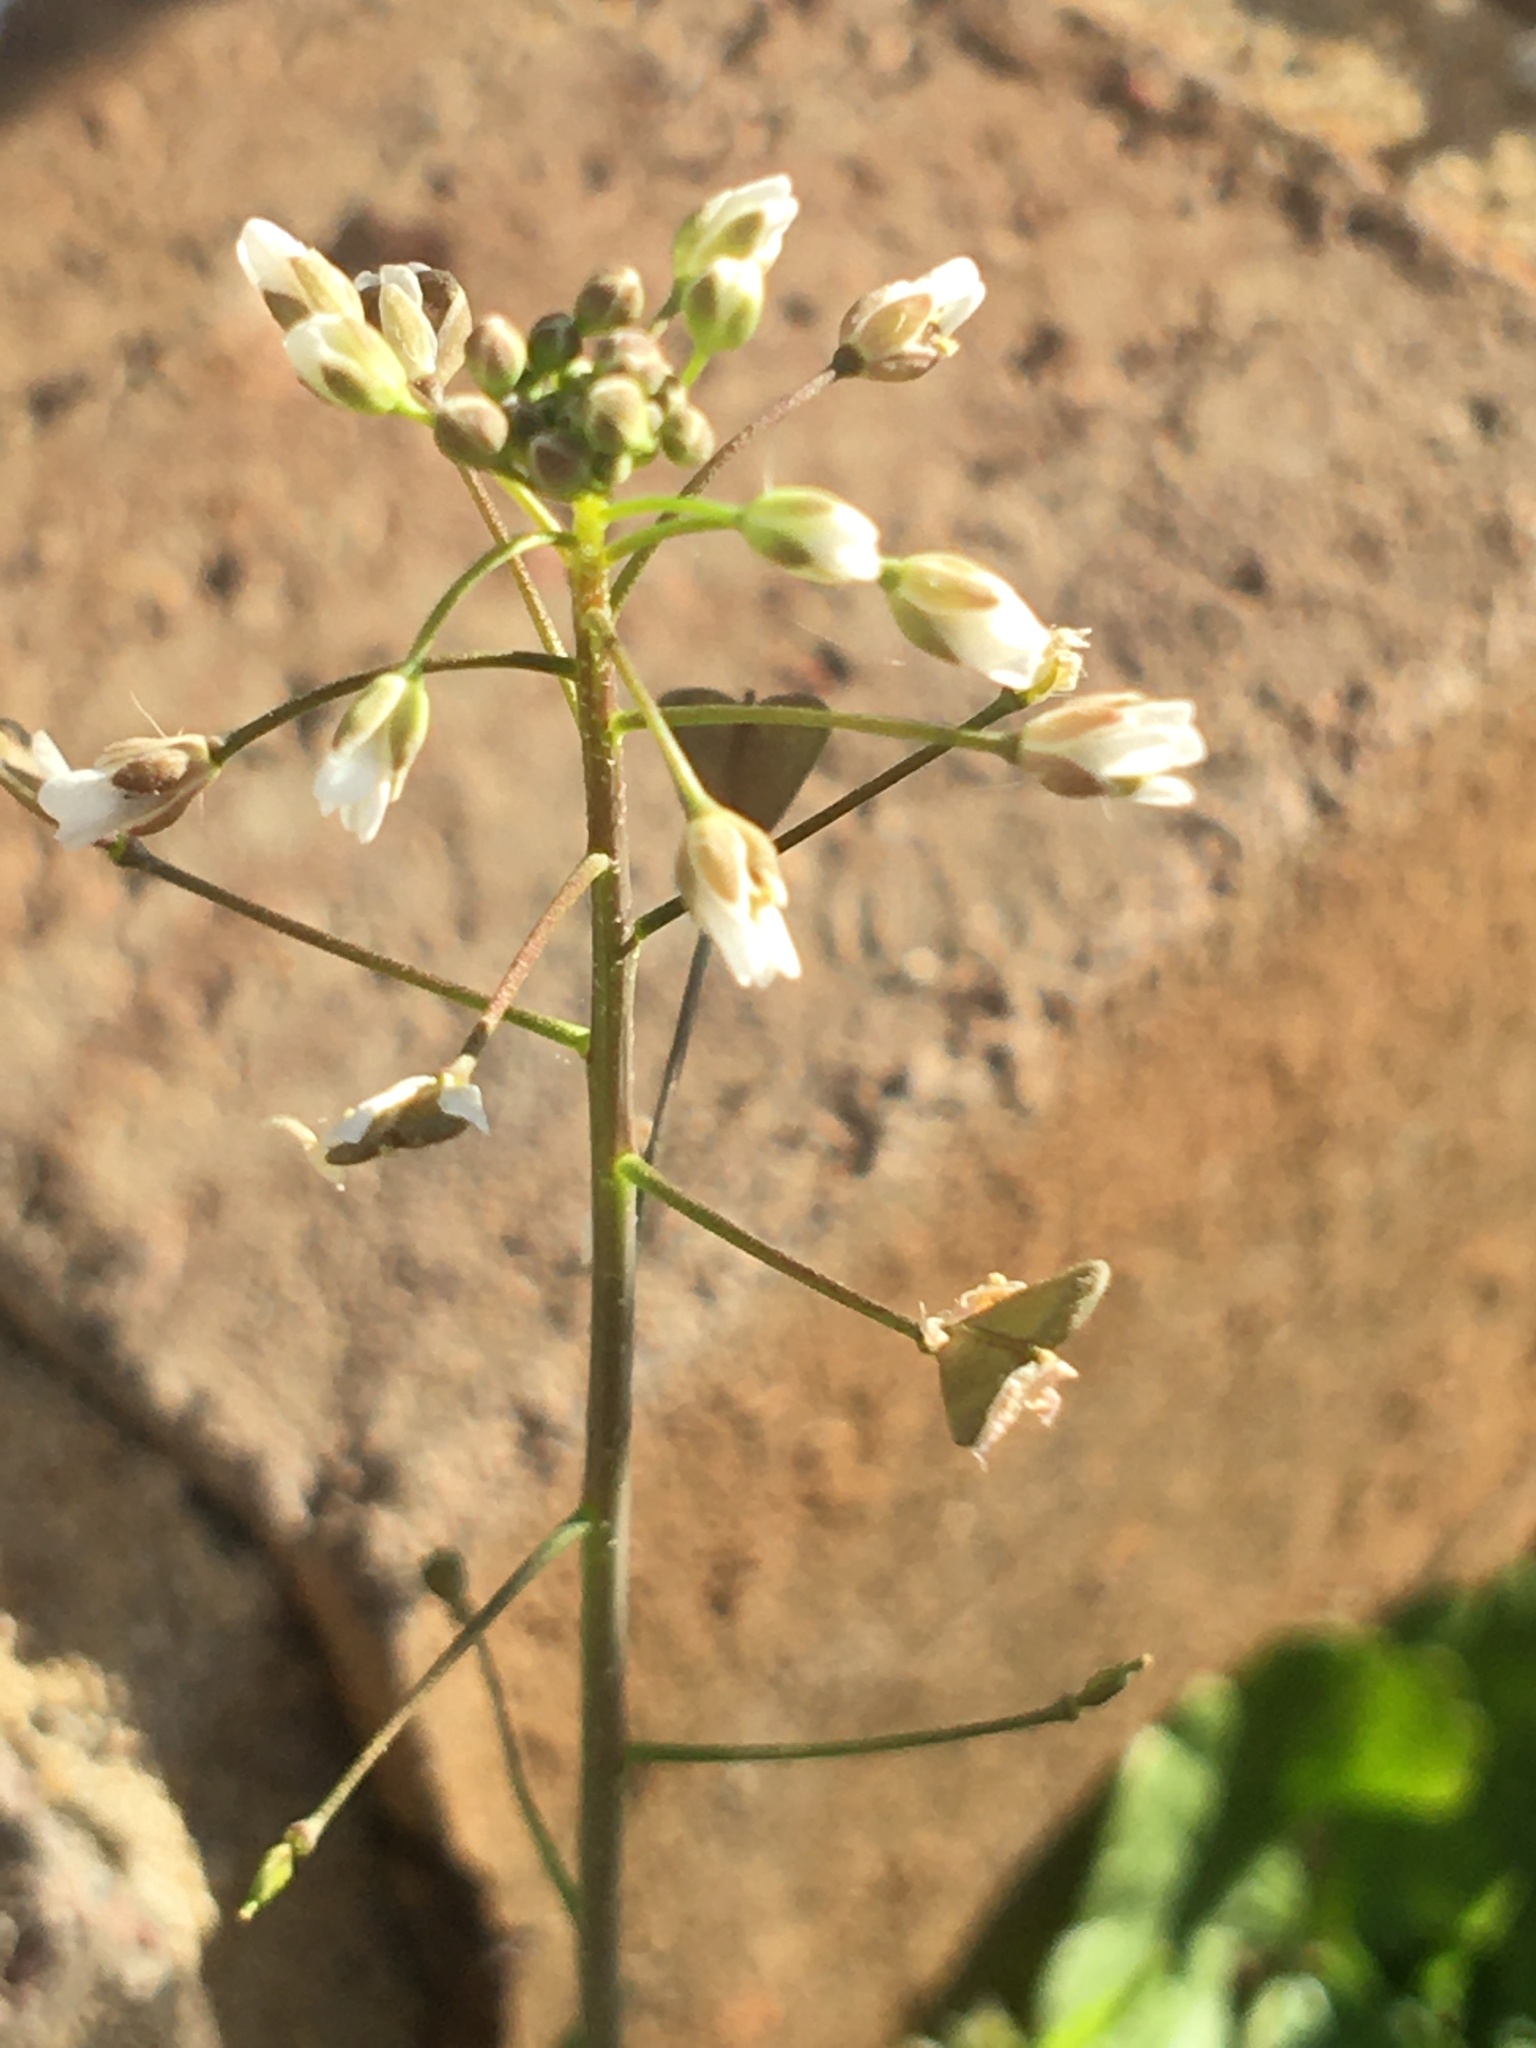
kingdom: Plantae
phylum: Tracheophyta
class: Magnoliopsida
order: Brassicales
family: Brassicaceae
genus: Capsella
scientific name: Capsella bursa-pastoris
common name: Shepherd's purse
